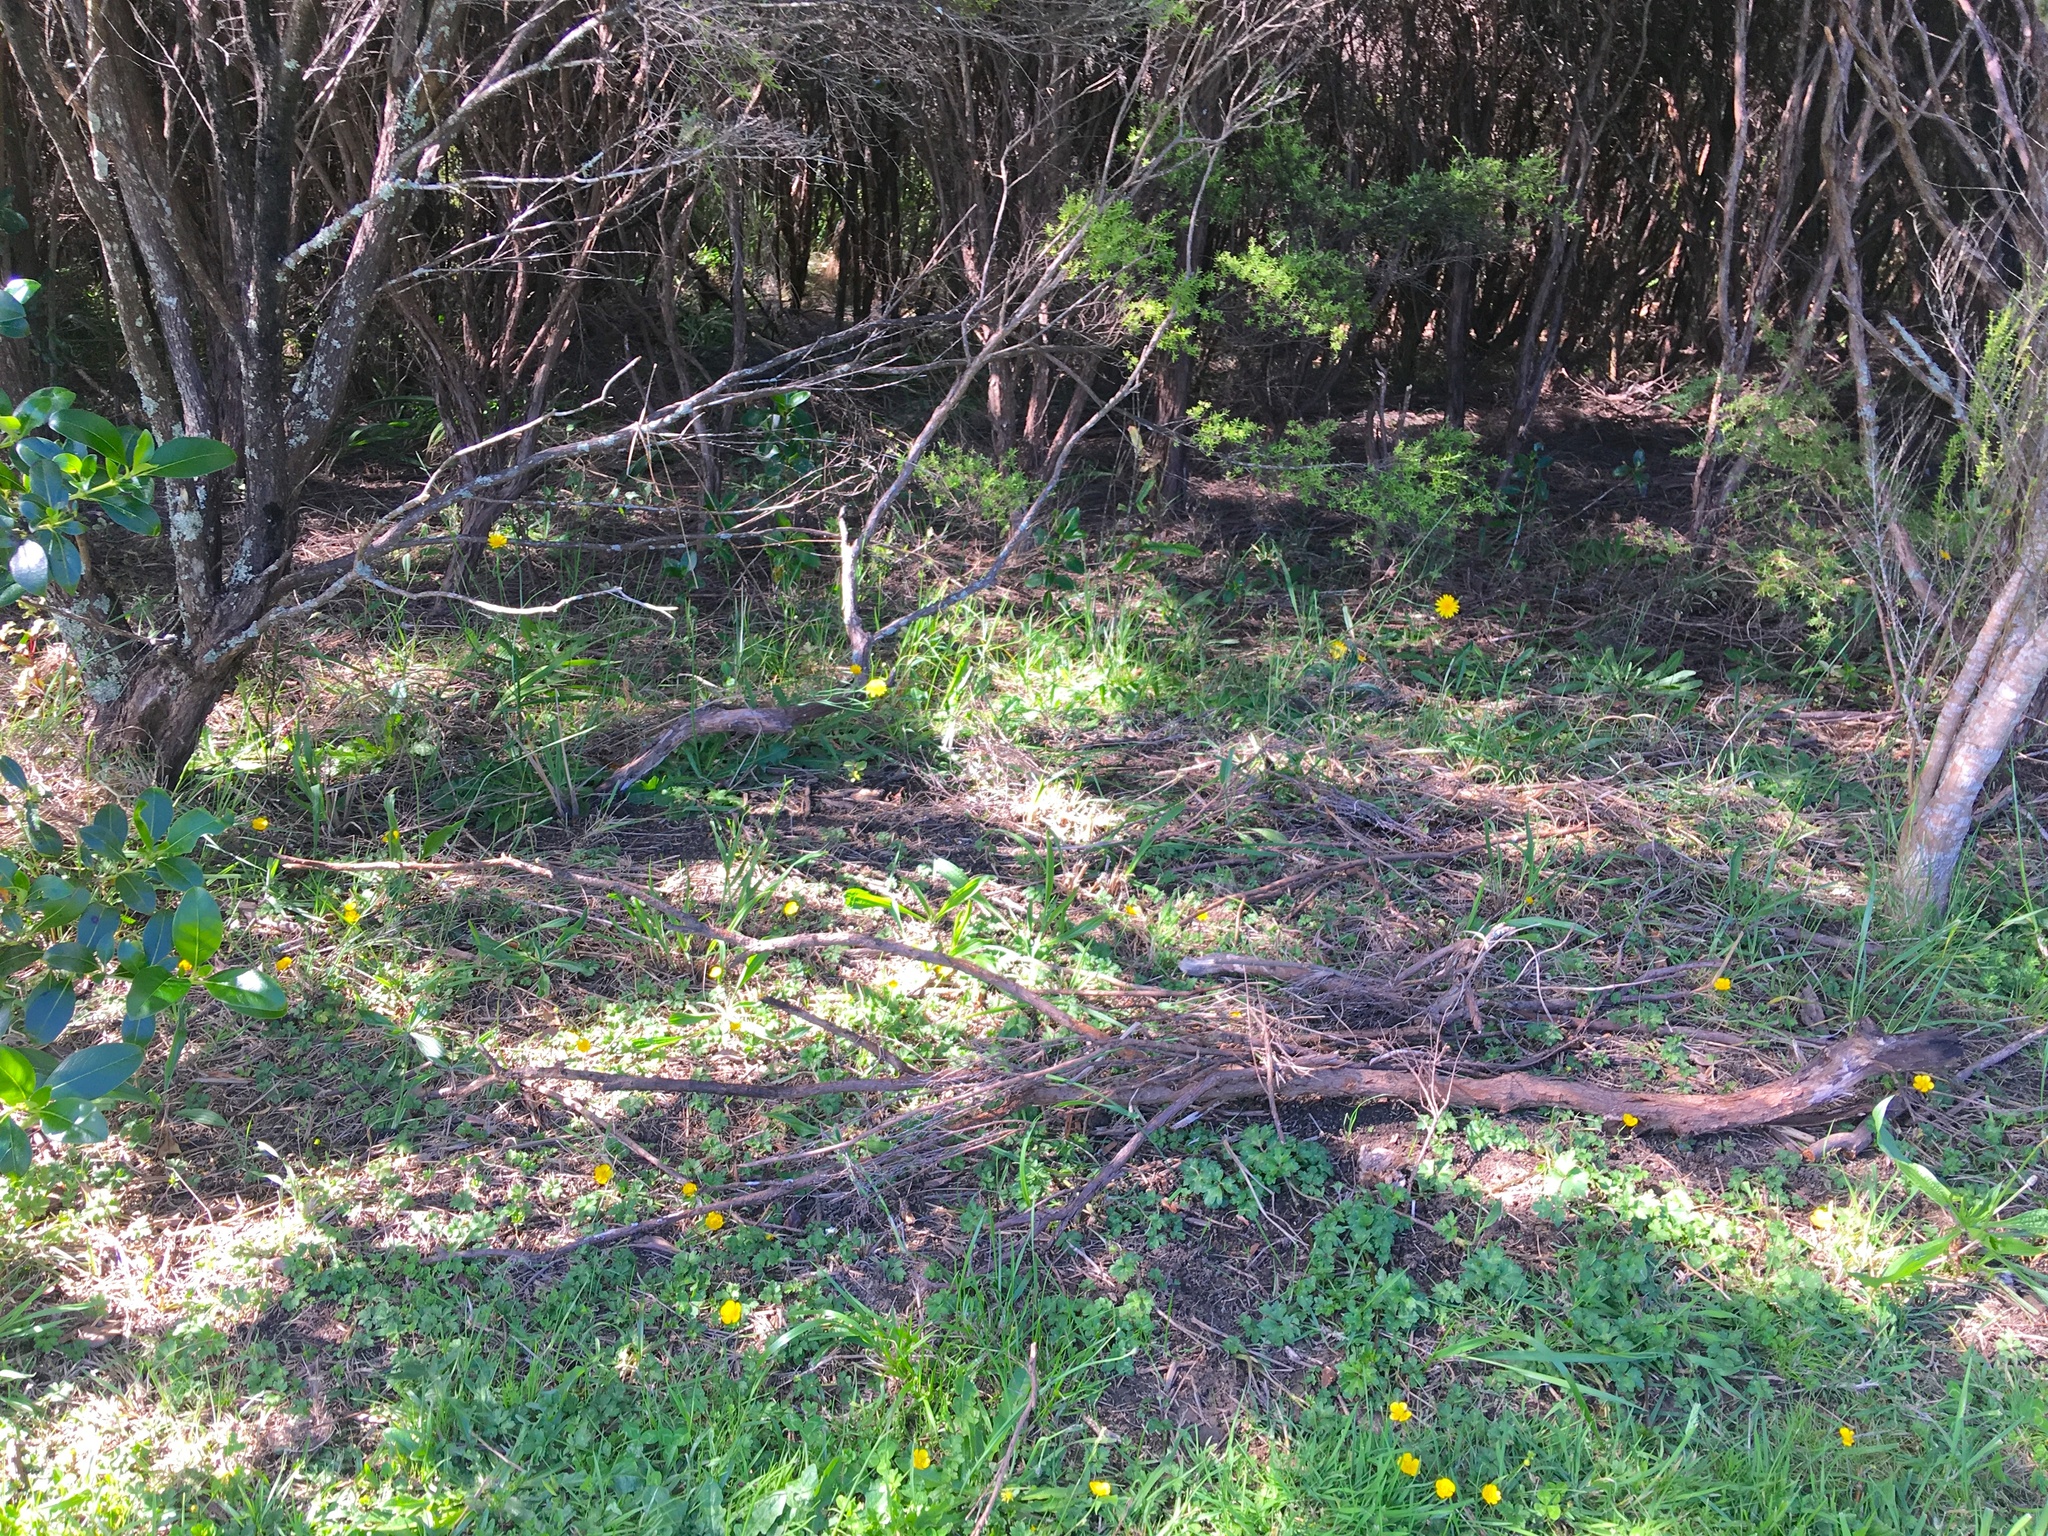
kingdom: Plantae
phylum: Tracheophyta
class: Magnoliopsida
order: Ranunculales
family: Ranunculaceae
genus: Ranunculus
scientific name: Ranunculus repens
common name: Creeping buttercup
